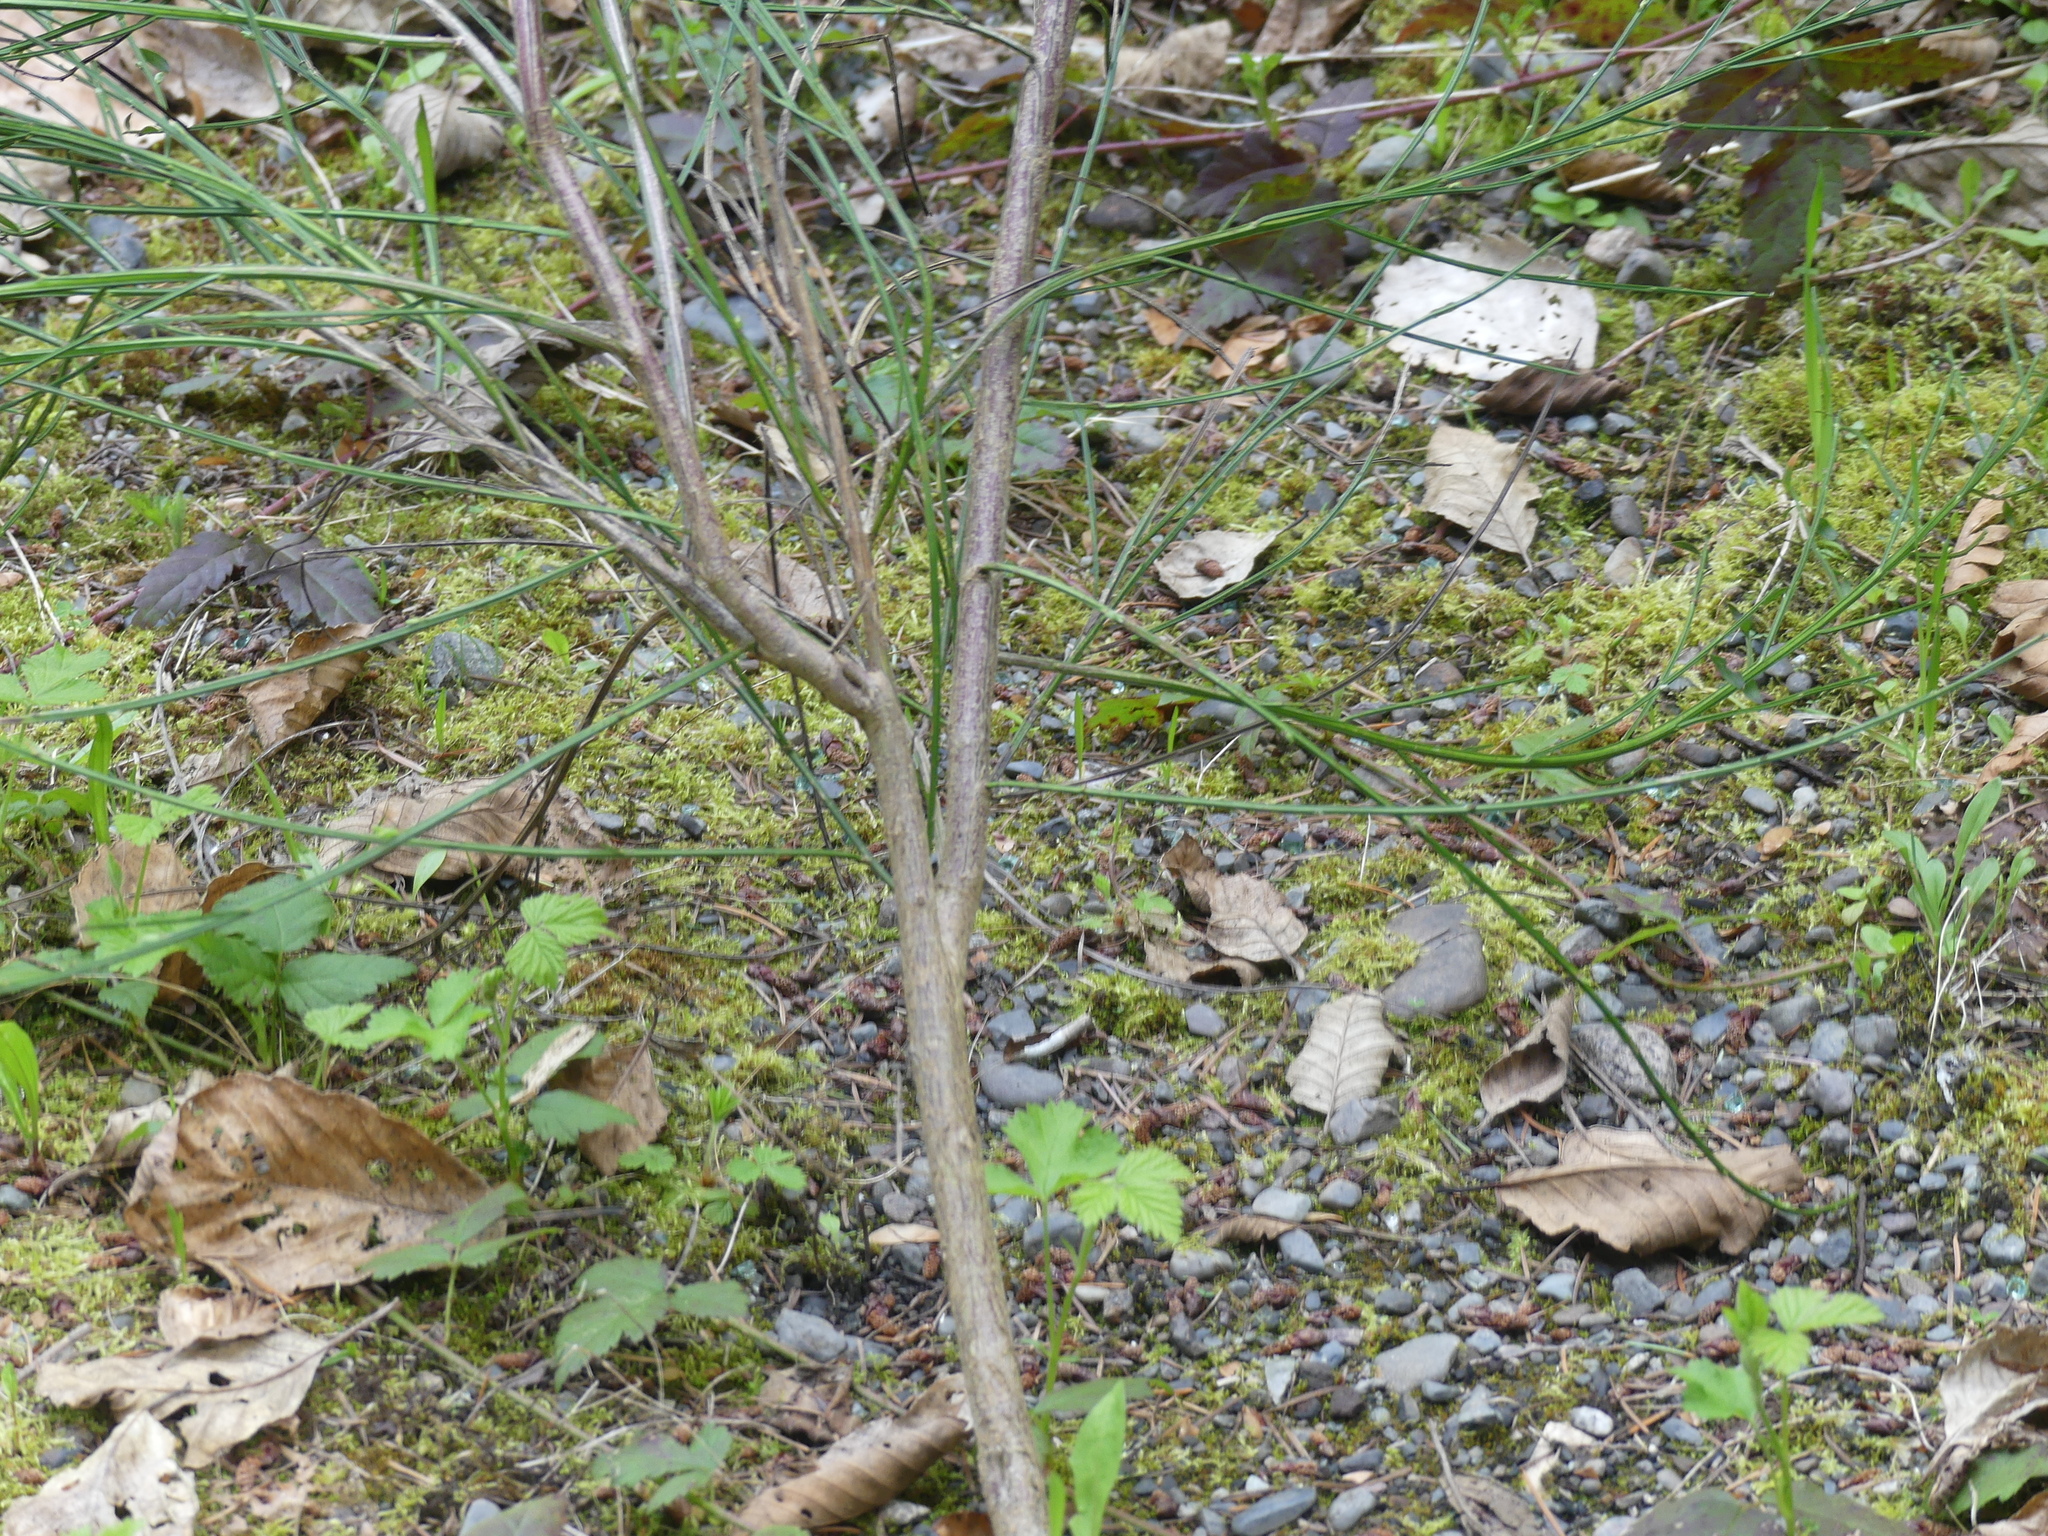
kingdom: Plantae
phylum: Tracheophyta
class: Magnoliopsida
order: Fabales
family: Fabaceae
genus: Cytisus
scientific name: Cytisus scoparius
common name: Scotch broom
